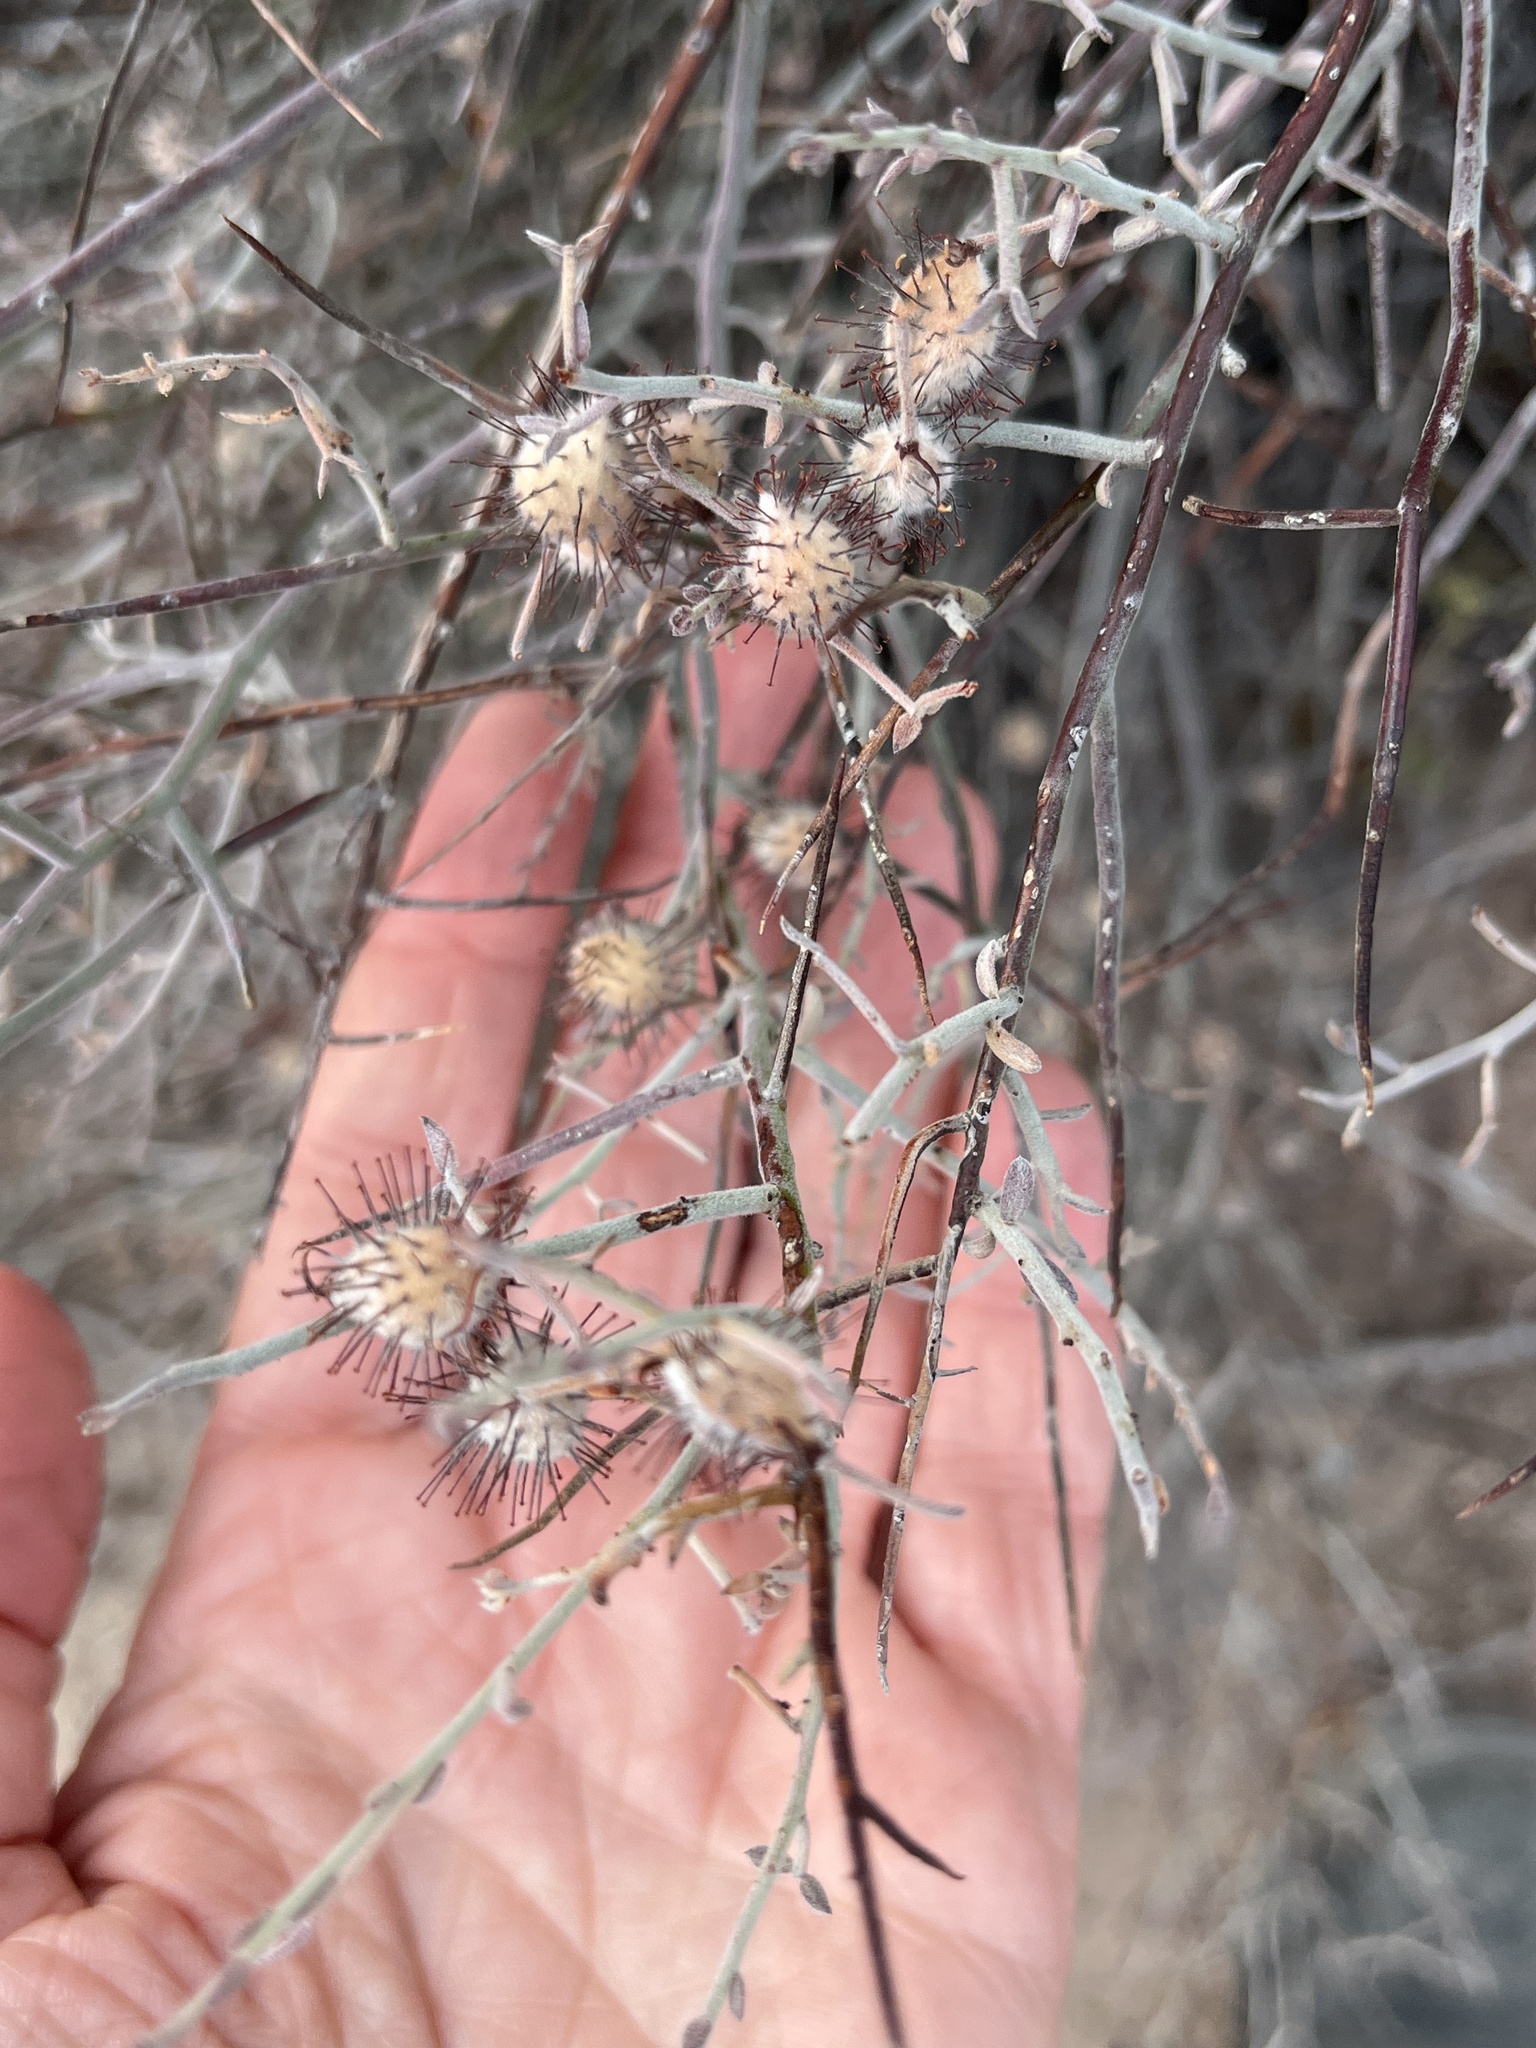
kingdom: Plantae
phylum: Tracheophyta
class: Magnoliopsida
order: Zygophyllales
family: Krameriaceae
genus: Krameria
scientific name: Krameria bicolor
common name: White ratany
